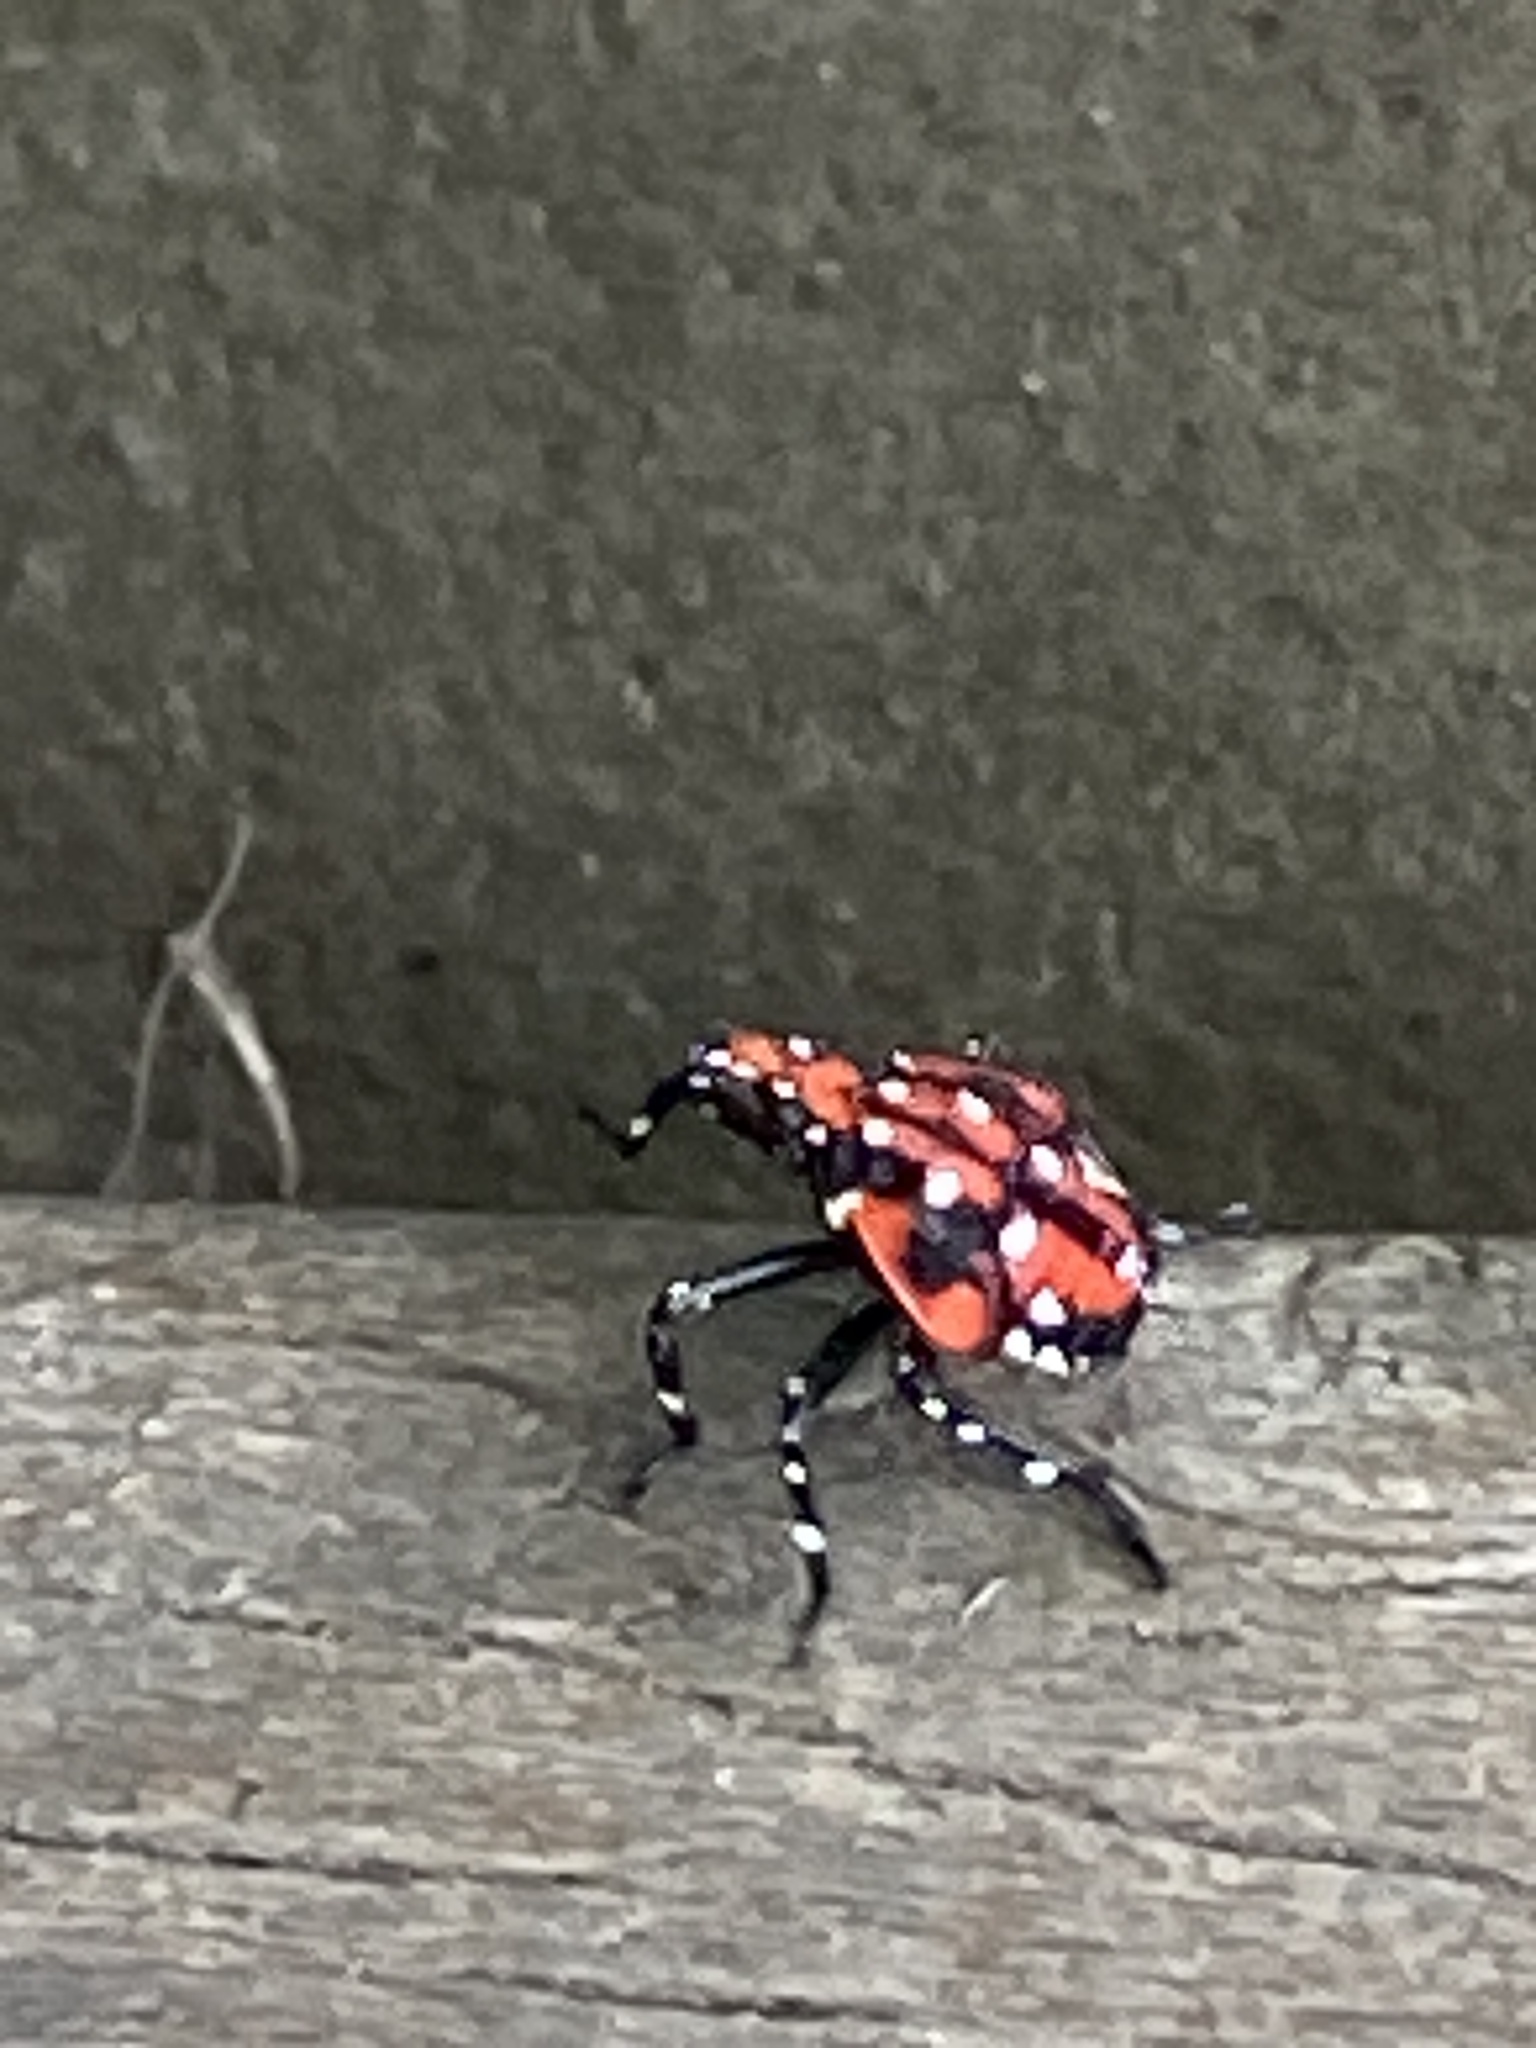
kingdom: Animalia
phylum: Arthropoda
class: Insecta
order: Hemiptera
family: Fulgoridae
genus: Lycorma
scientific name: Lycorma delicatula
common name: Spotted lanternfly
